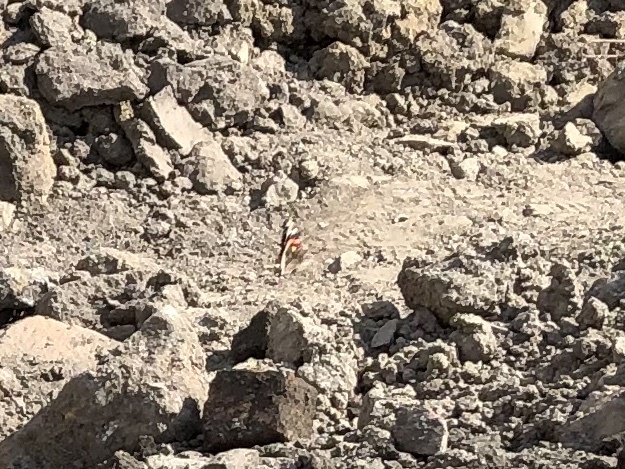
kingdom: Animalia
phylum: Arthropoda
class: Insecta
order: Lepidoptera
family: Nymphalidae
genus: Vanessa
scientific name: Vanessa atalanta
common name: Red admiral
